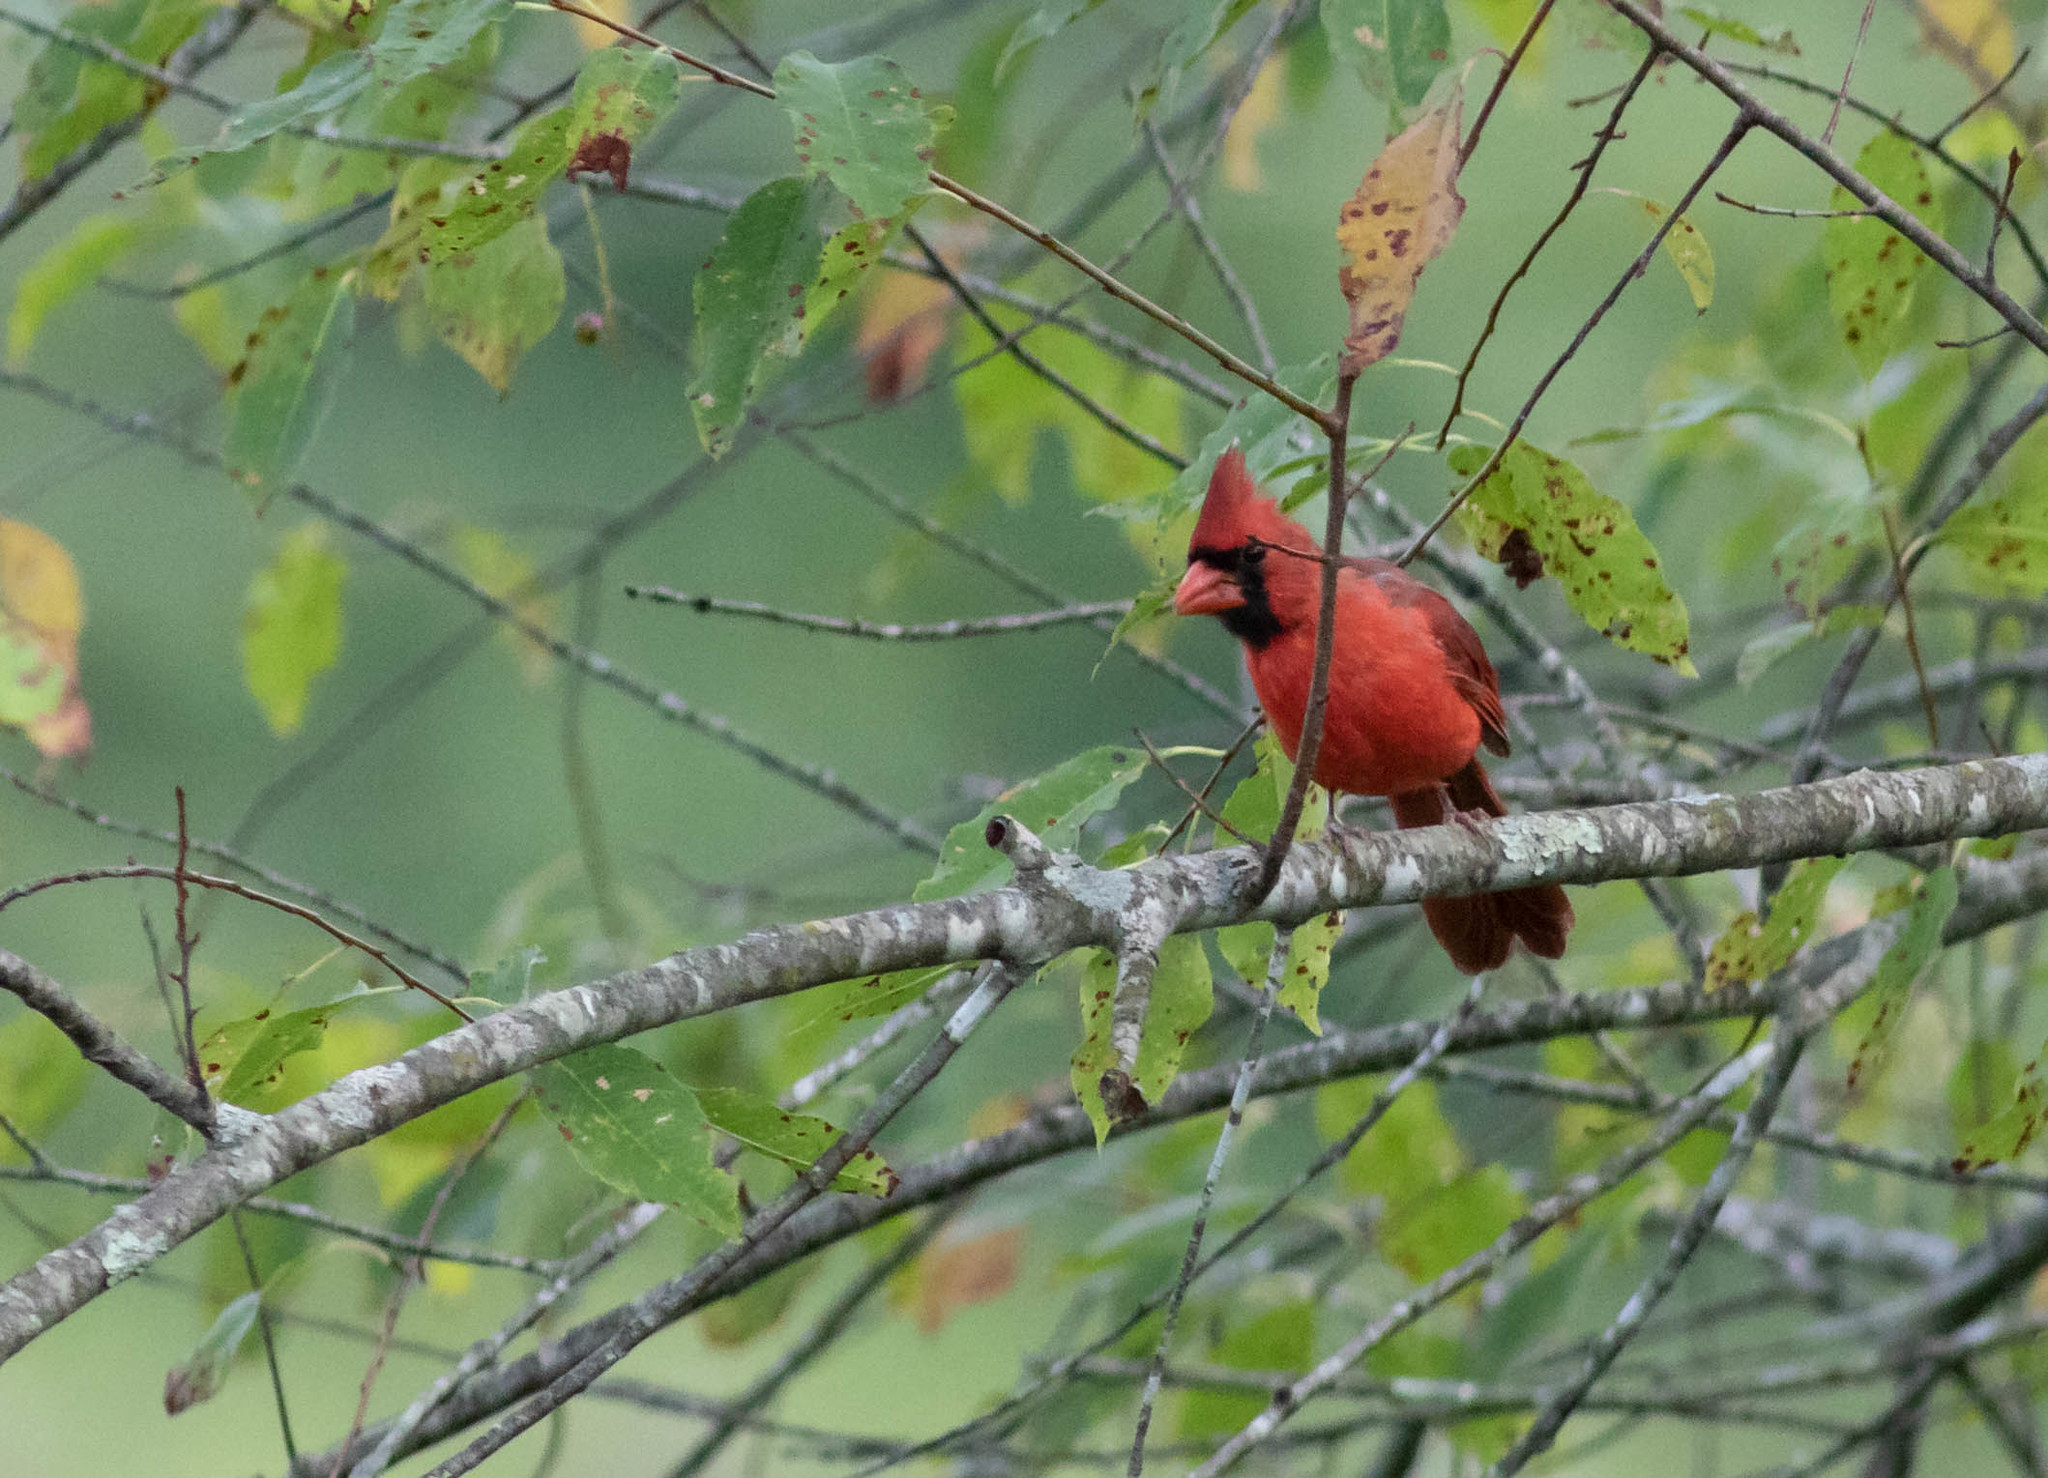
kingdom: Animalia
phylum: Chordata
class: Aves
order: Passeriformes
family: Cardinalidae
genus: Cardinalis
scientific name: Cardinalis cardinalis
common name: Northern cardinal
